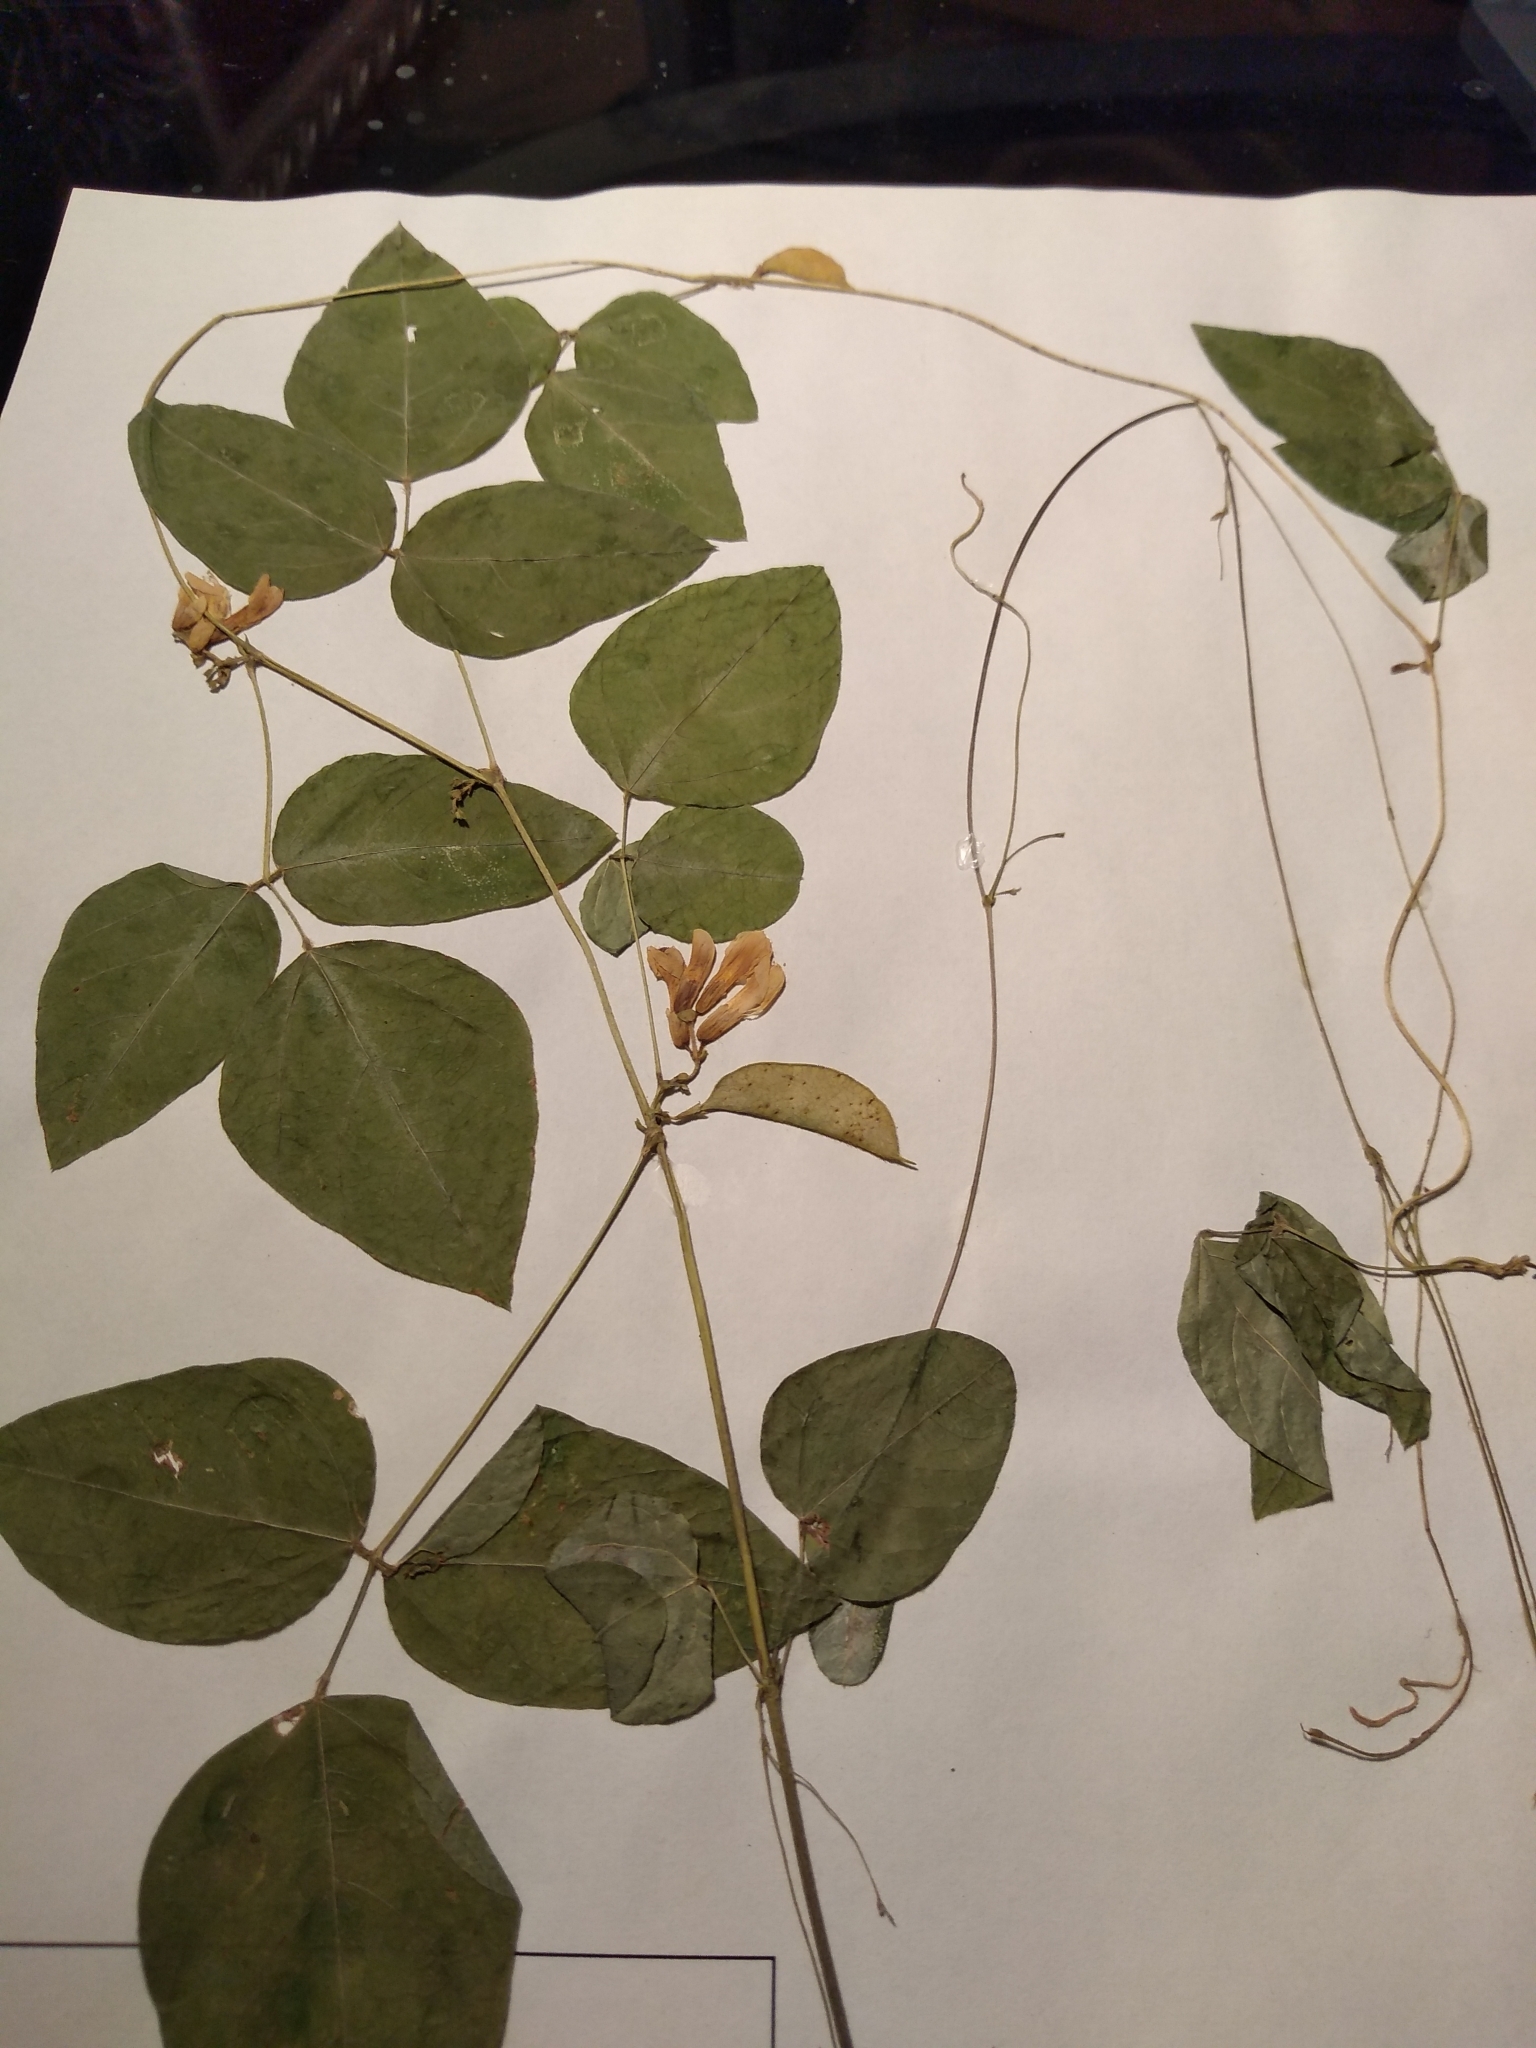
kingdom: Plantae
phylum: Tracheophyta
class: Magnoliopsida
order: Fabales
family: Fabaceae
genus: Amphicarpaea
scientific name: Amphicarpaea bracteata
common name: American hog peanut
